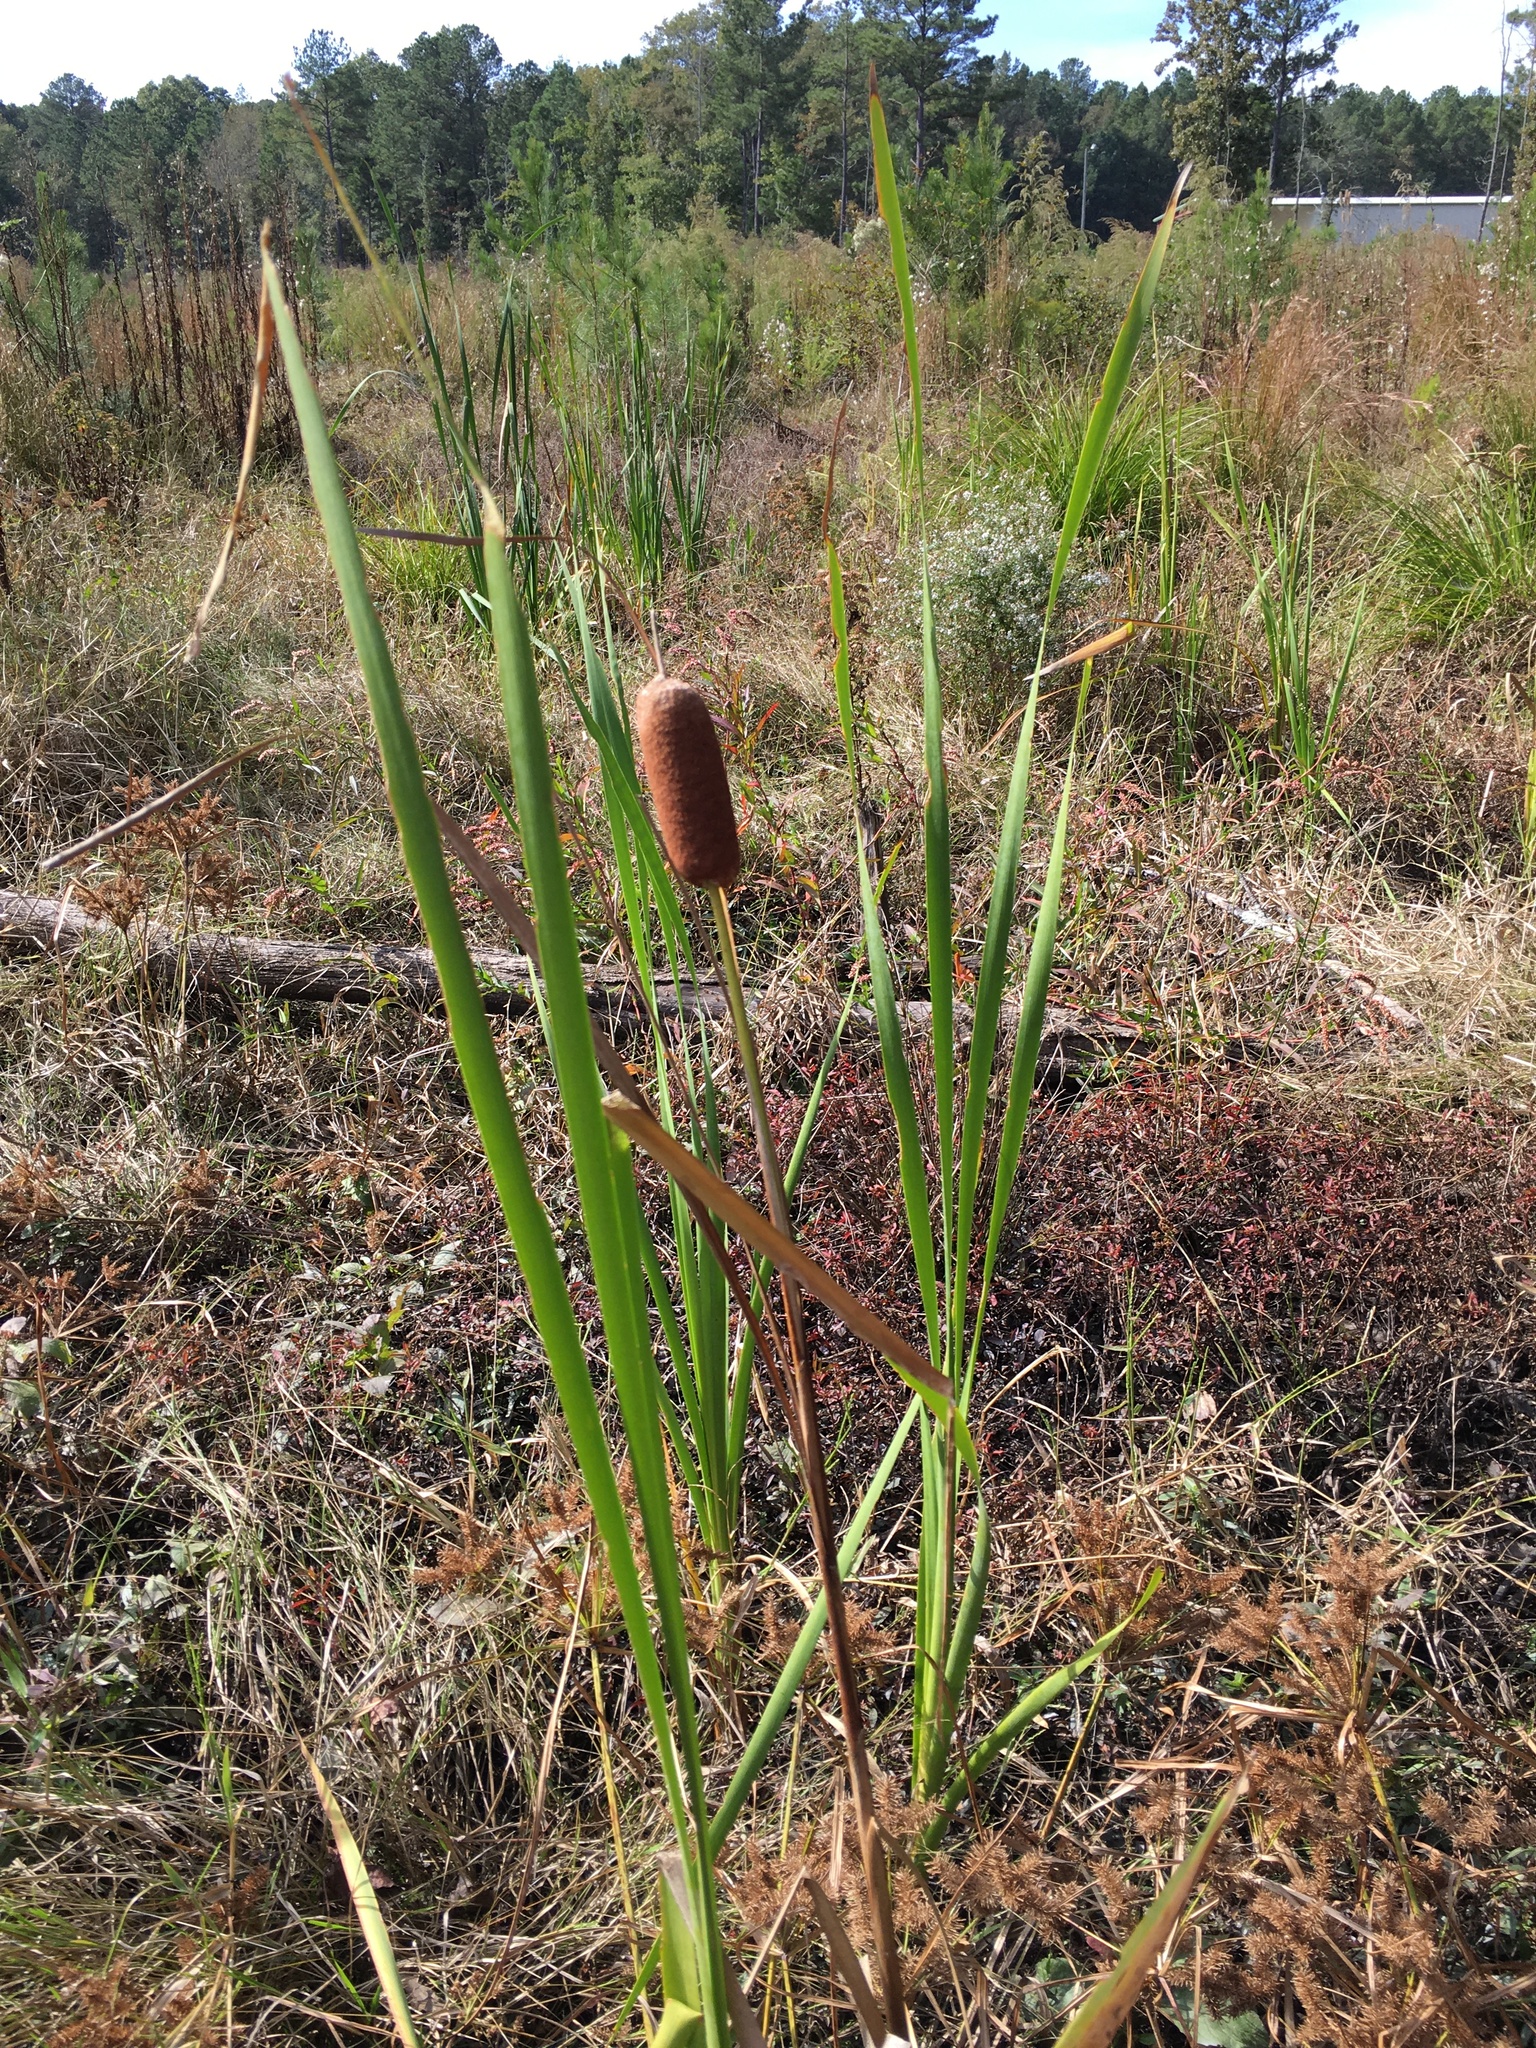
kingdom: Plantae
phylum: Tracheophyta
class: Liliopsida
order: Poales
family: Typhaceae
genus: Typha
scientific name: Typha latifolia
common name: Broadleaf cattail
